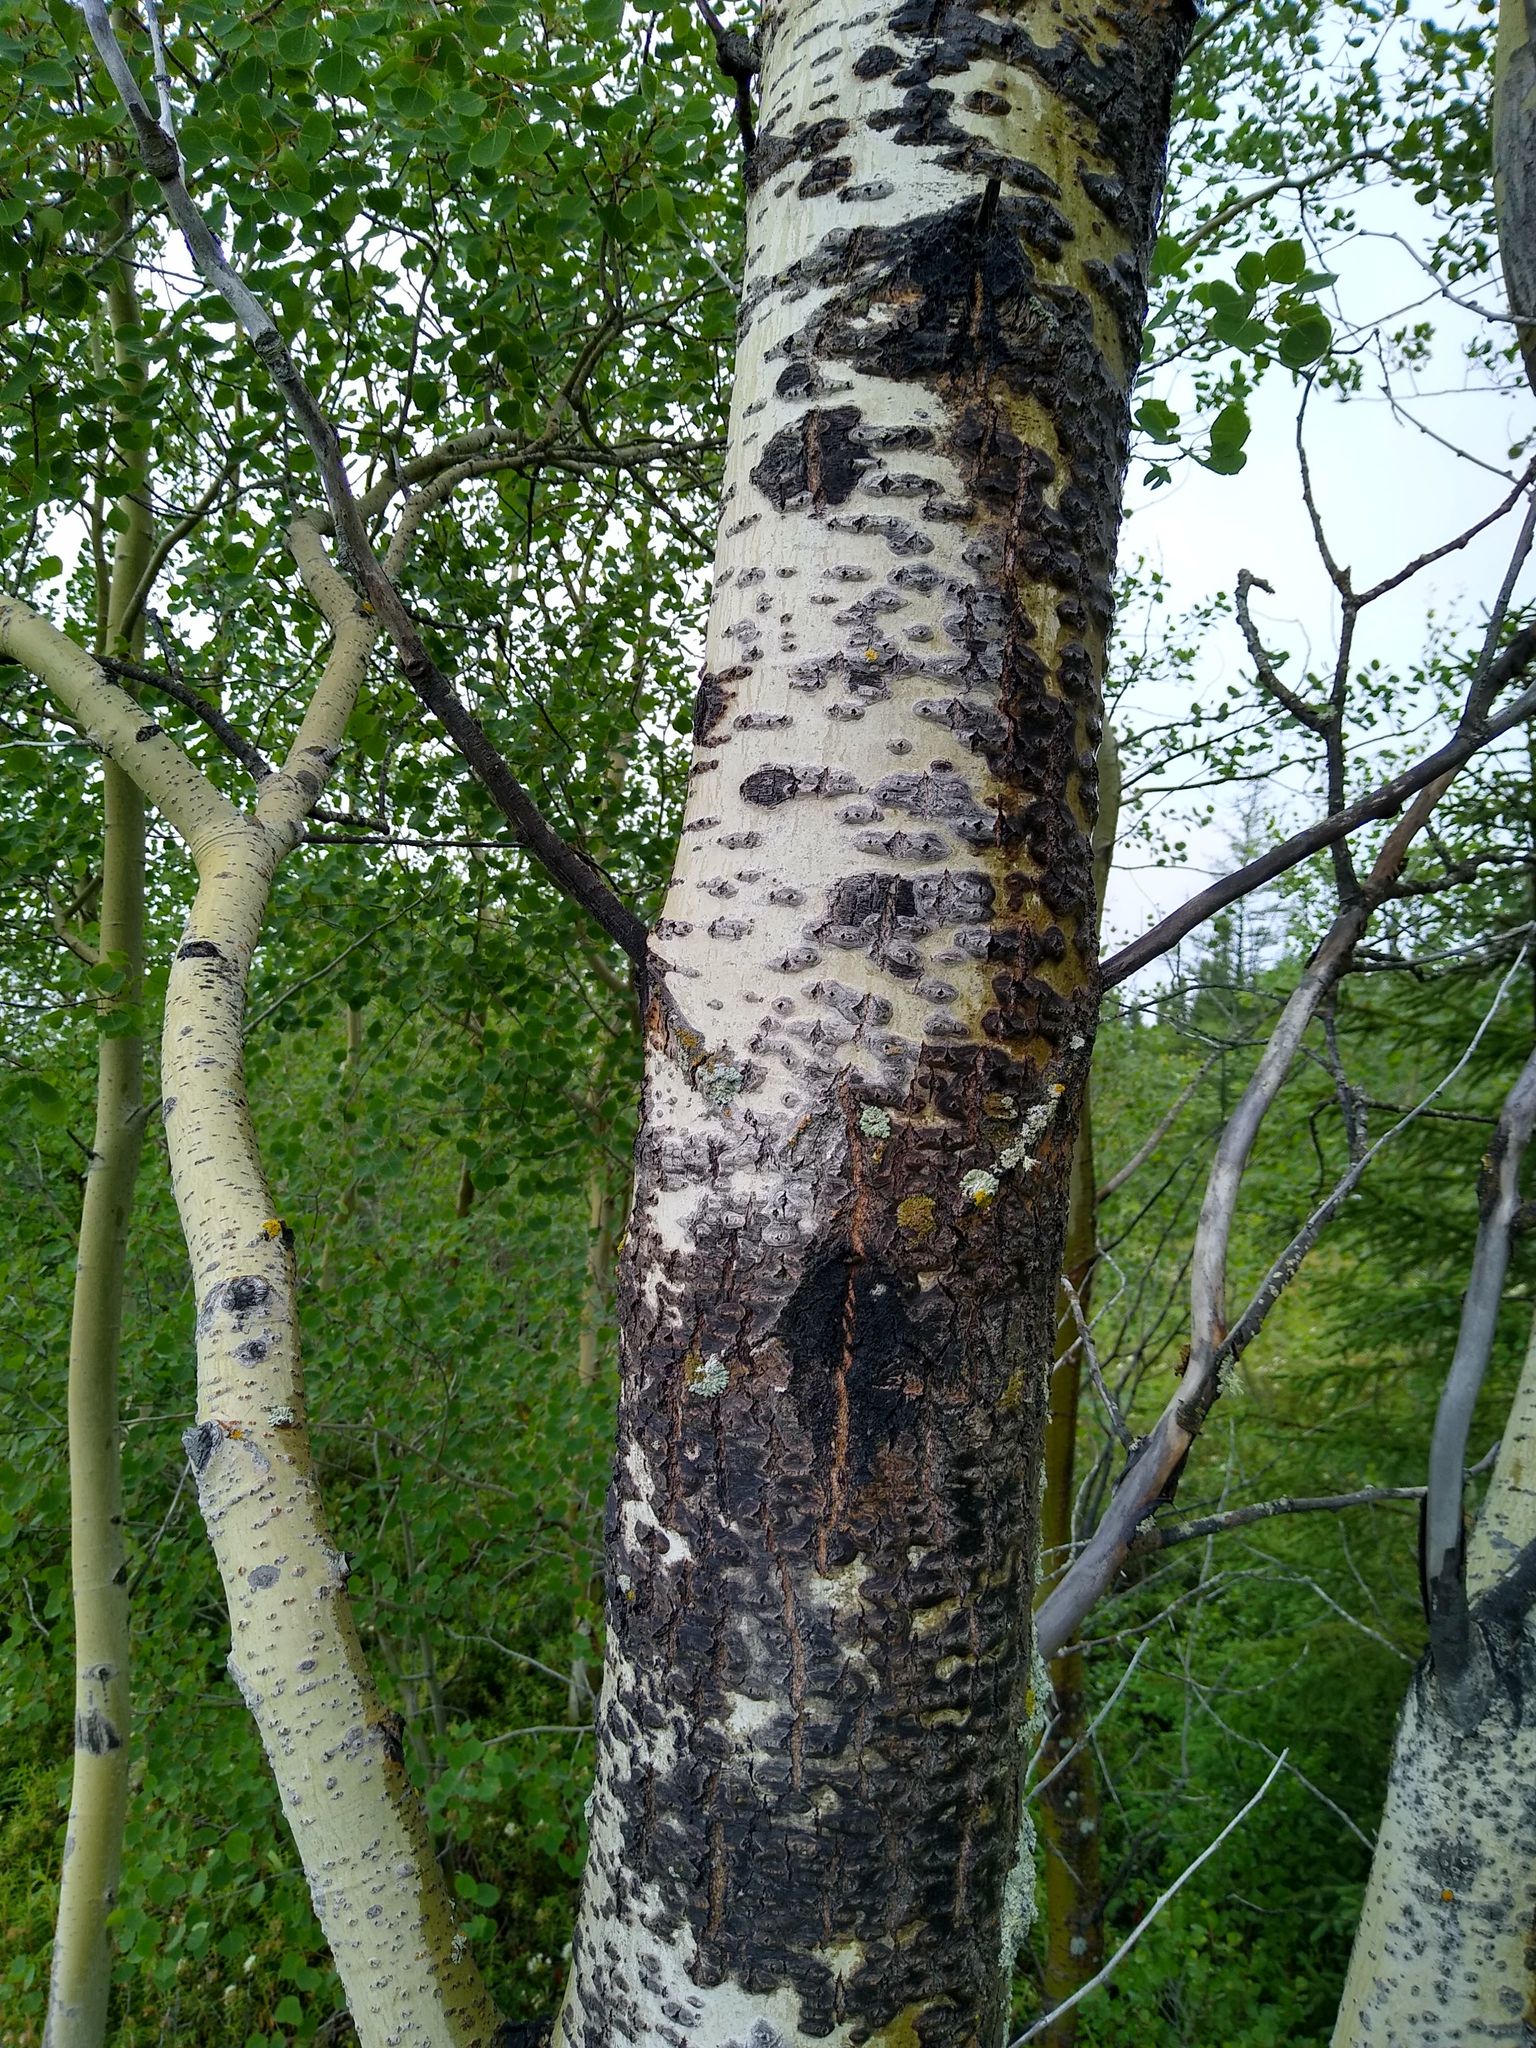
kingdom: Plantae
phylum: Tracheophyta
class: Magnoliopsida
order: Malpighiales
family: Salicaceae
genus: Populus
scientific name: Populus tremuloides
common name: Quaking aspen
